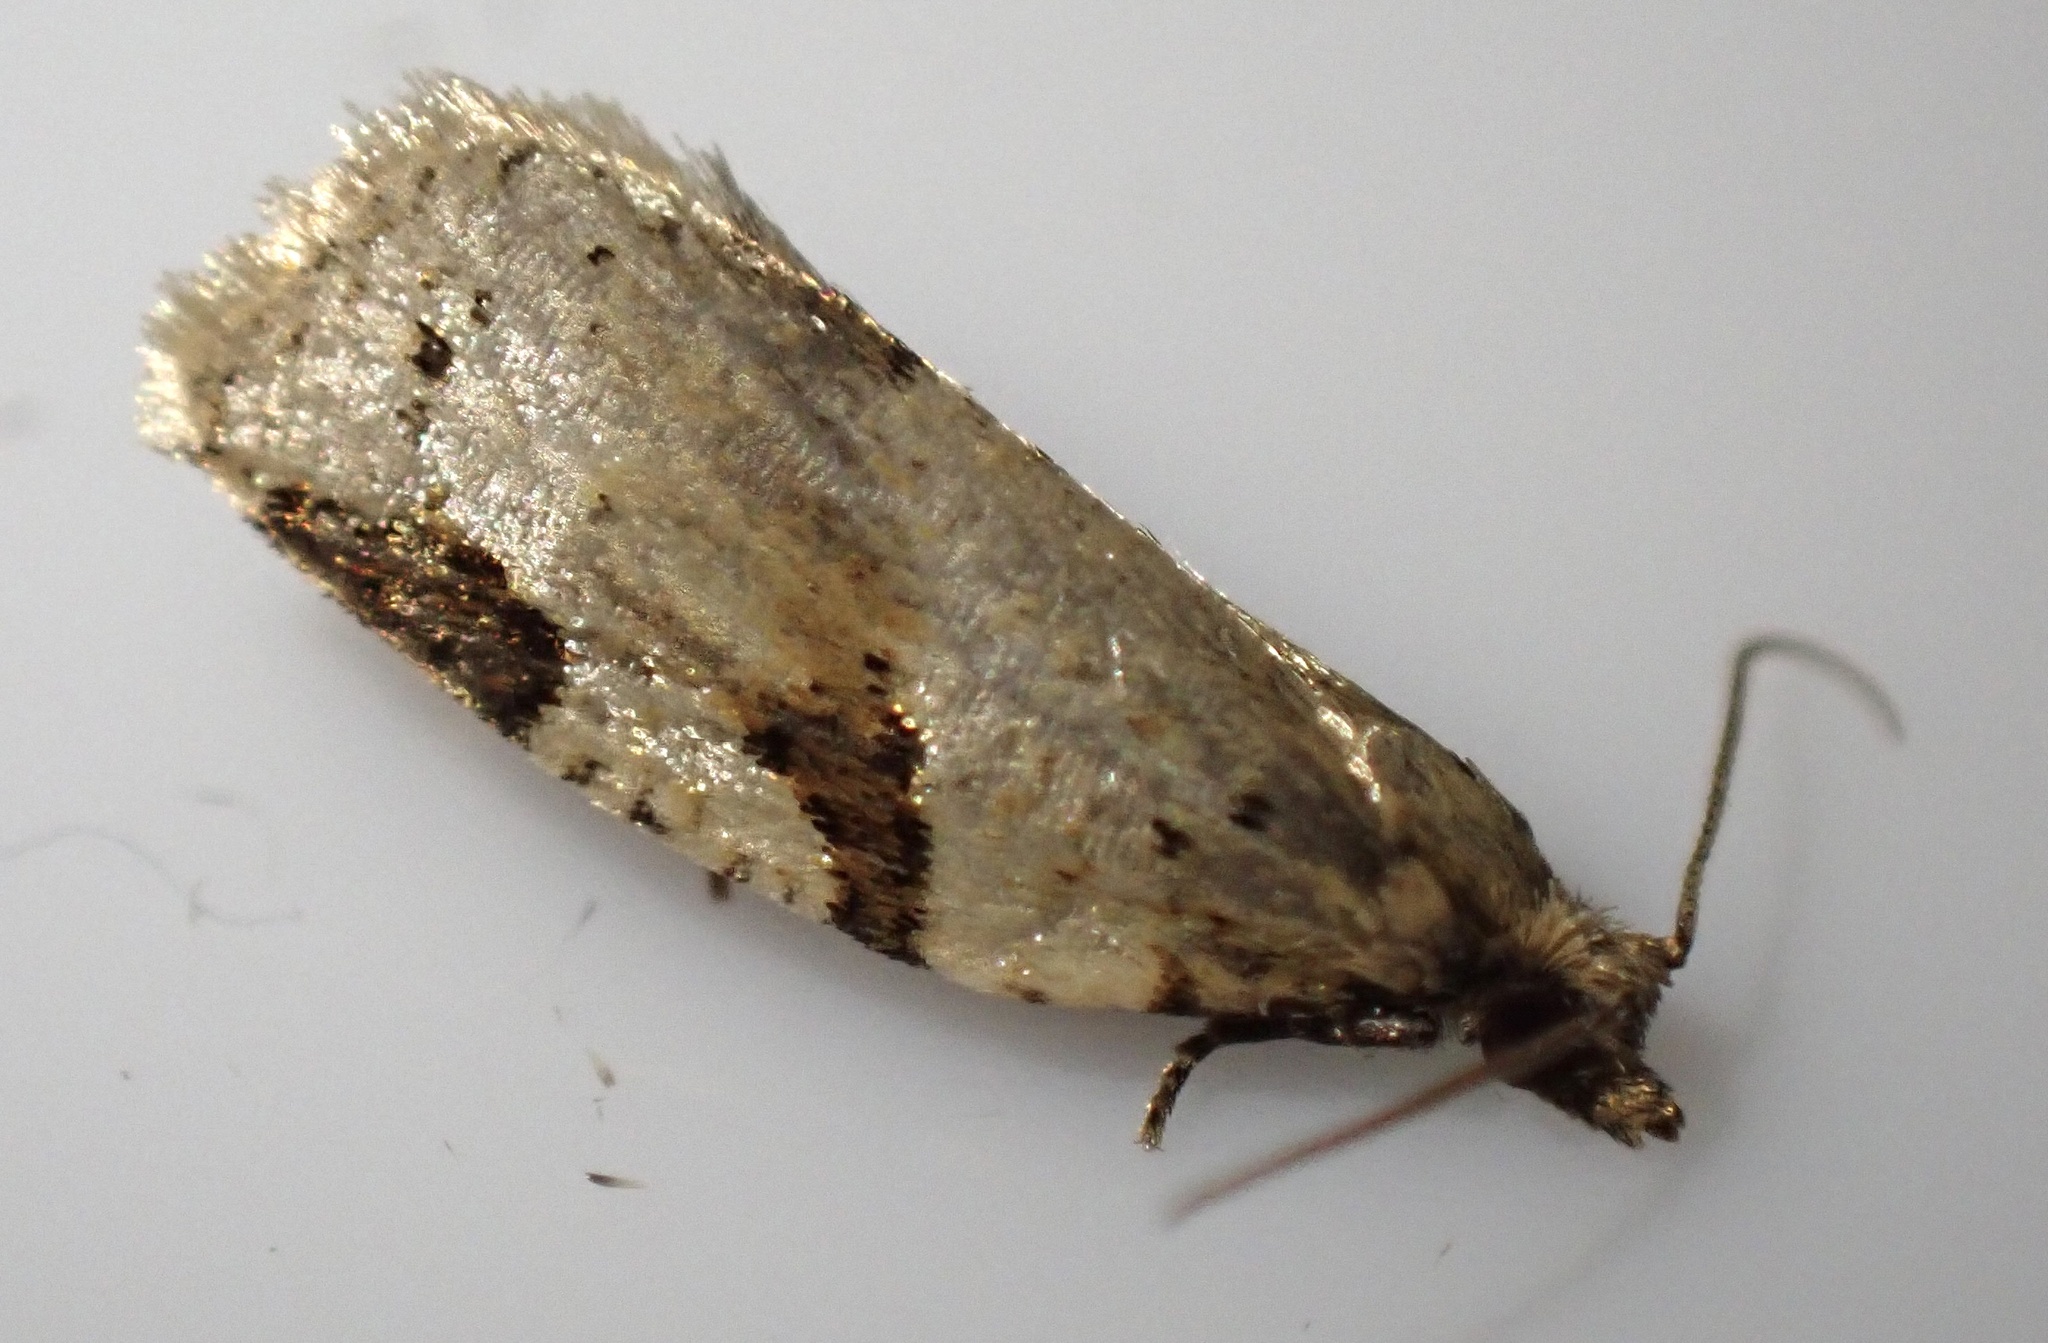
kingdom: Animalia
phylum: Arthropoda
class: Insecta
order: Lepidoptera
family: Tortricidae
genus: Clepsis
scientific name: Clepsis spectrana
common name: Cyclamen tortrix
